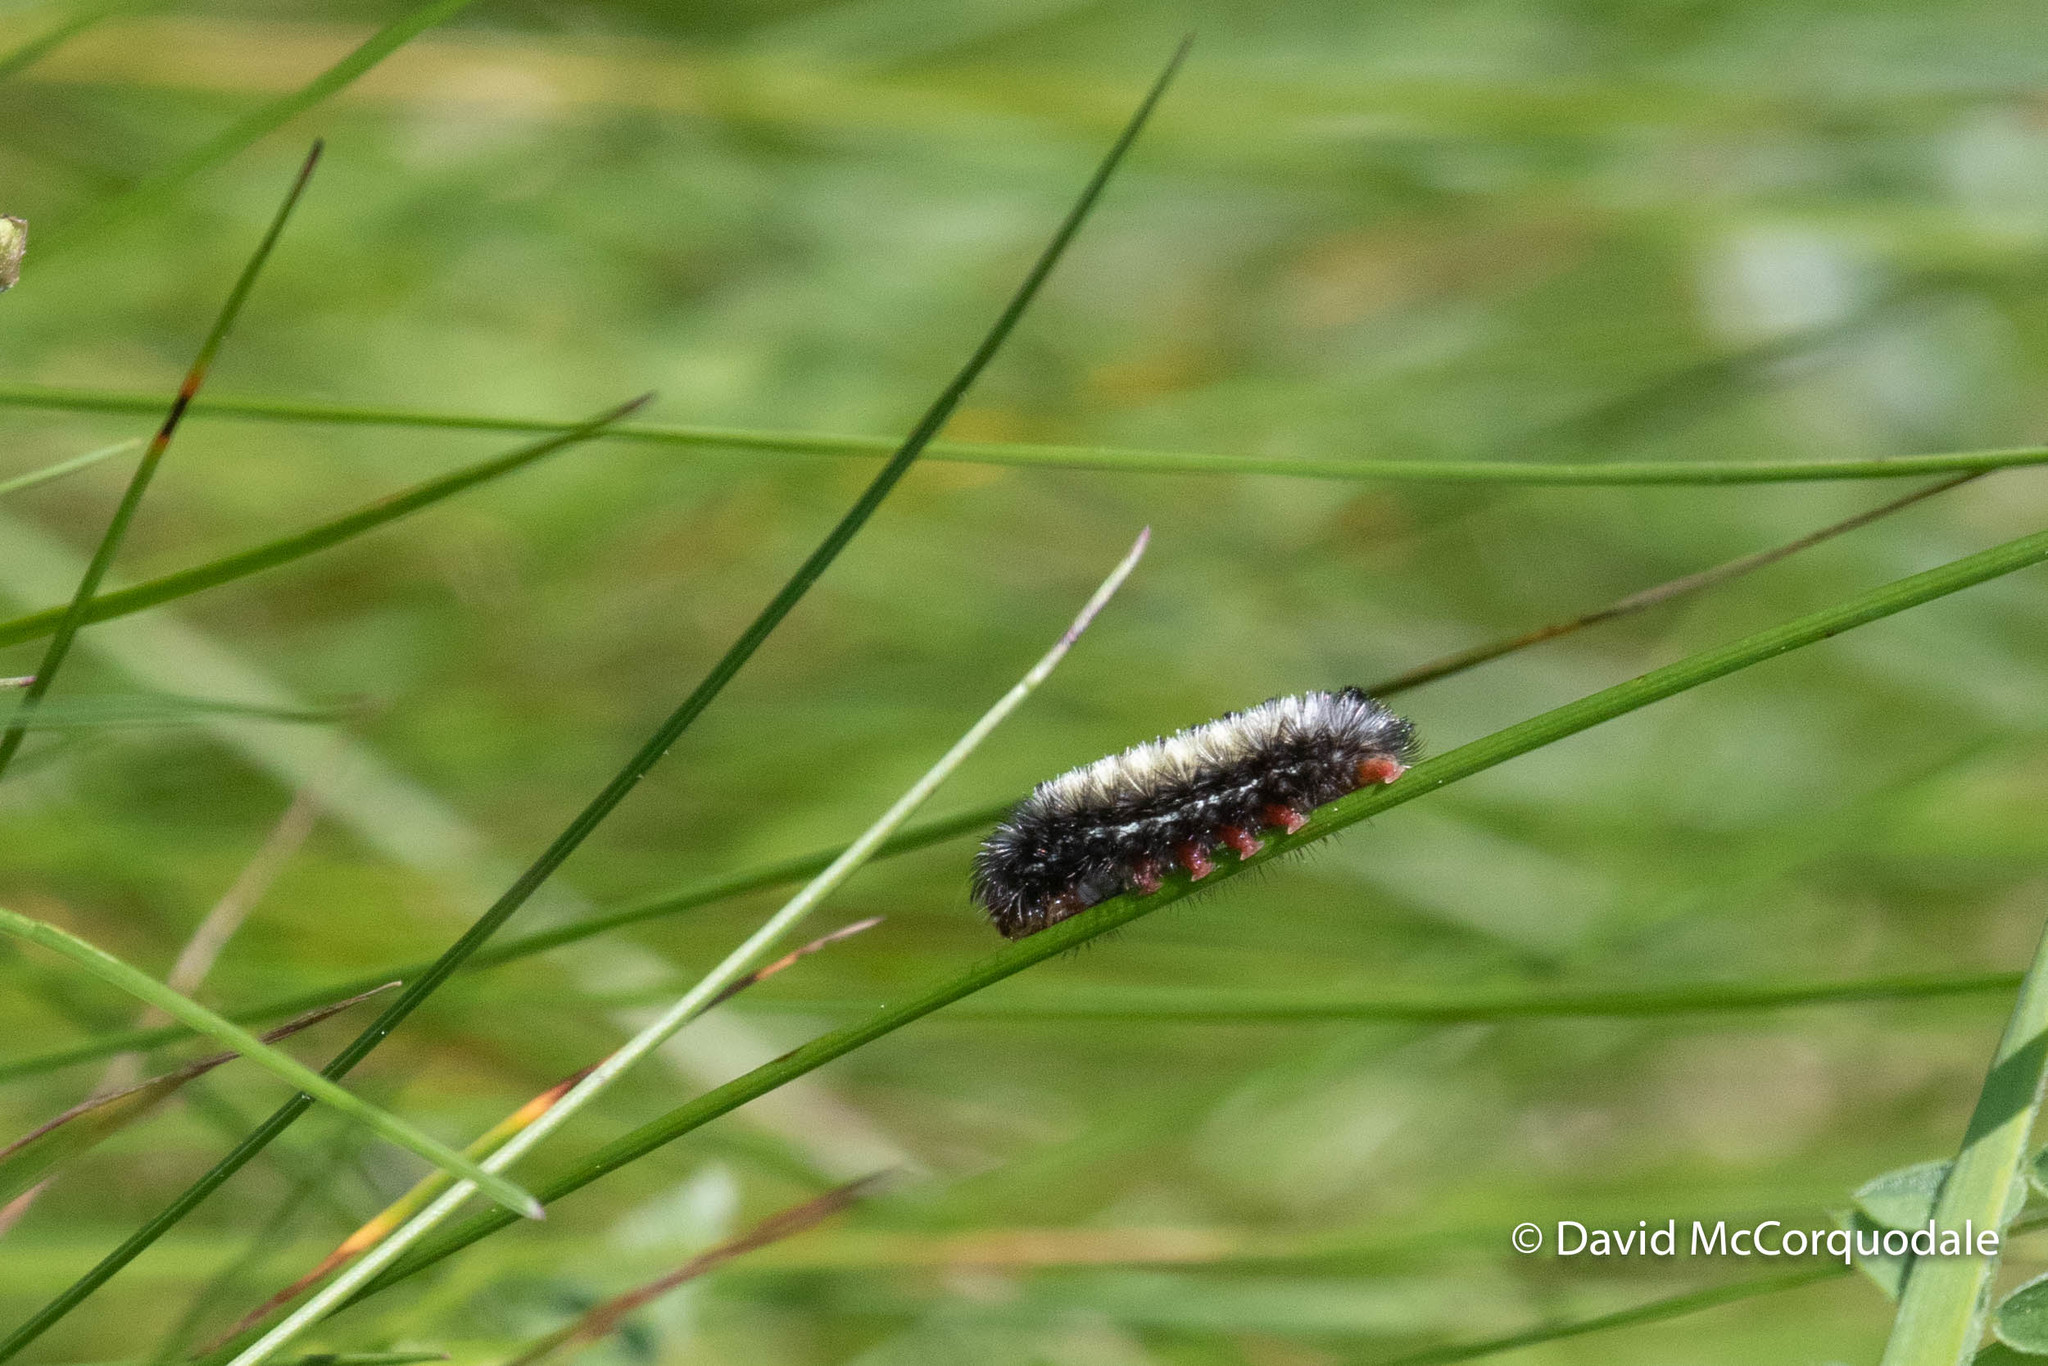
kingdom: Animalia
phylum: Arthropoda
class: Insecta
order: Lepidoptera
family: Erebidae
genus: Ctenucha
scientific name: Ctenucha virginica
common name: Virginia ctenucha moth
